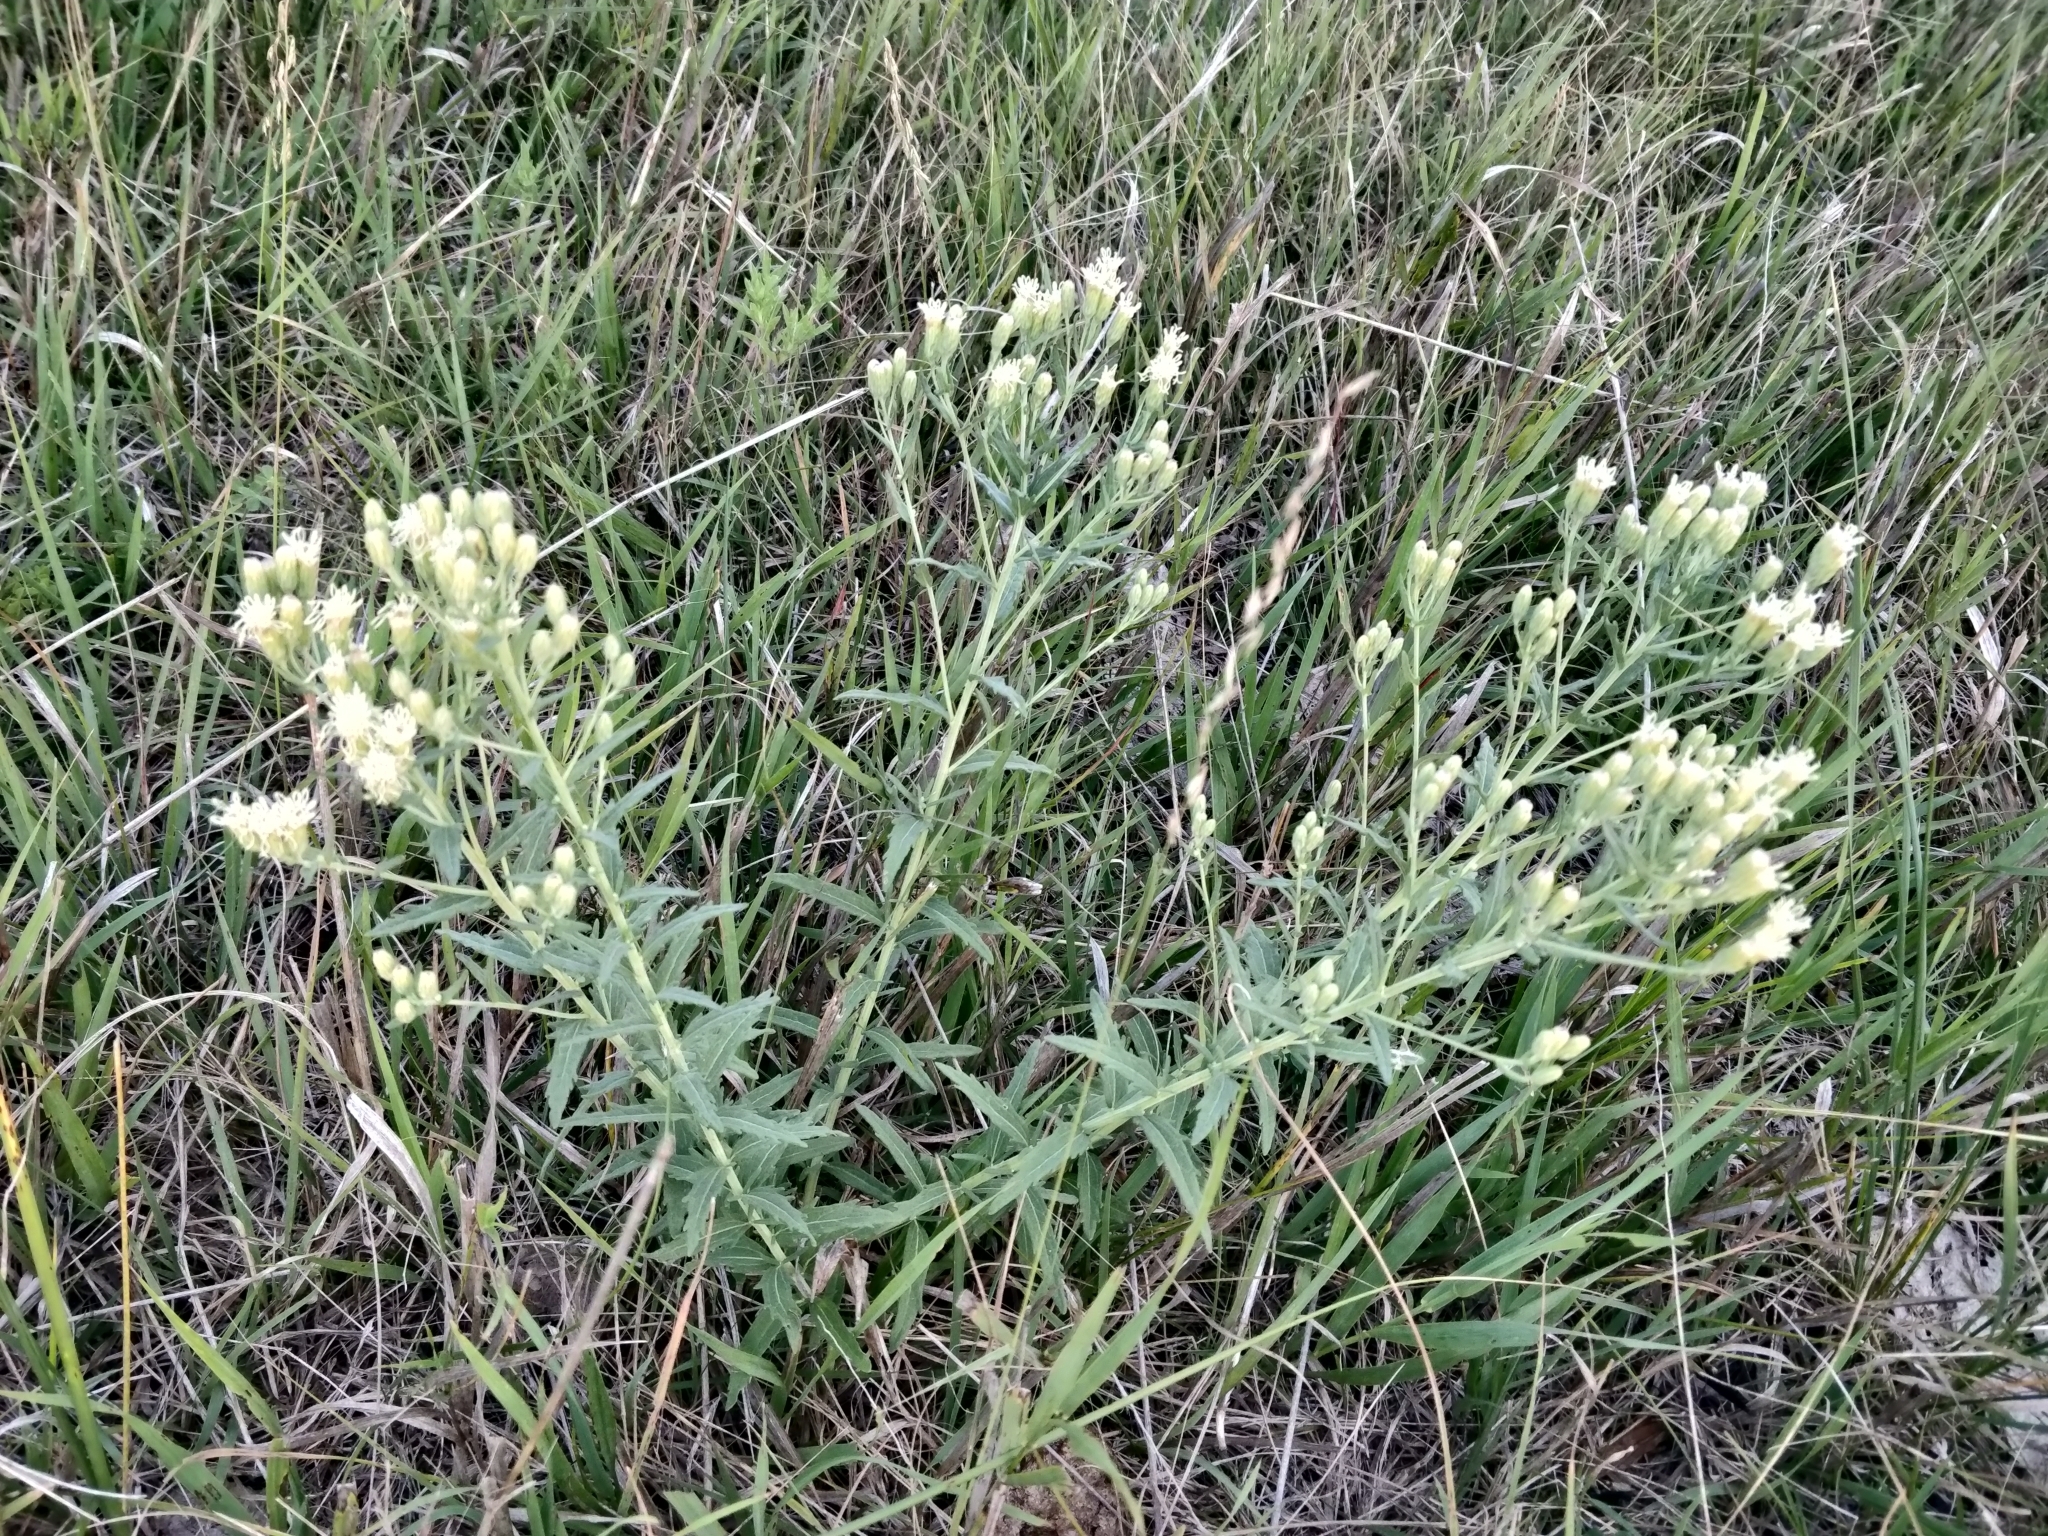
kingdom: Plantae
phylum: Tracheophyta
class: Magnoliopsida
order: Asterales
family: Asteraceae
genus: Brickellia
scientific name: Brickellia eupatorioides
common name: False boneset
